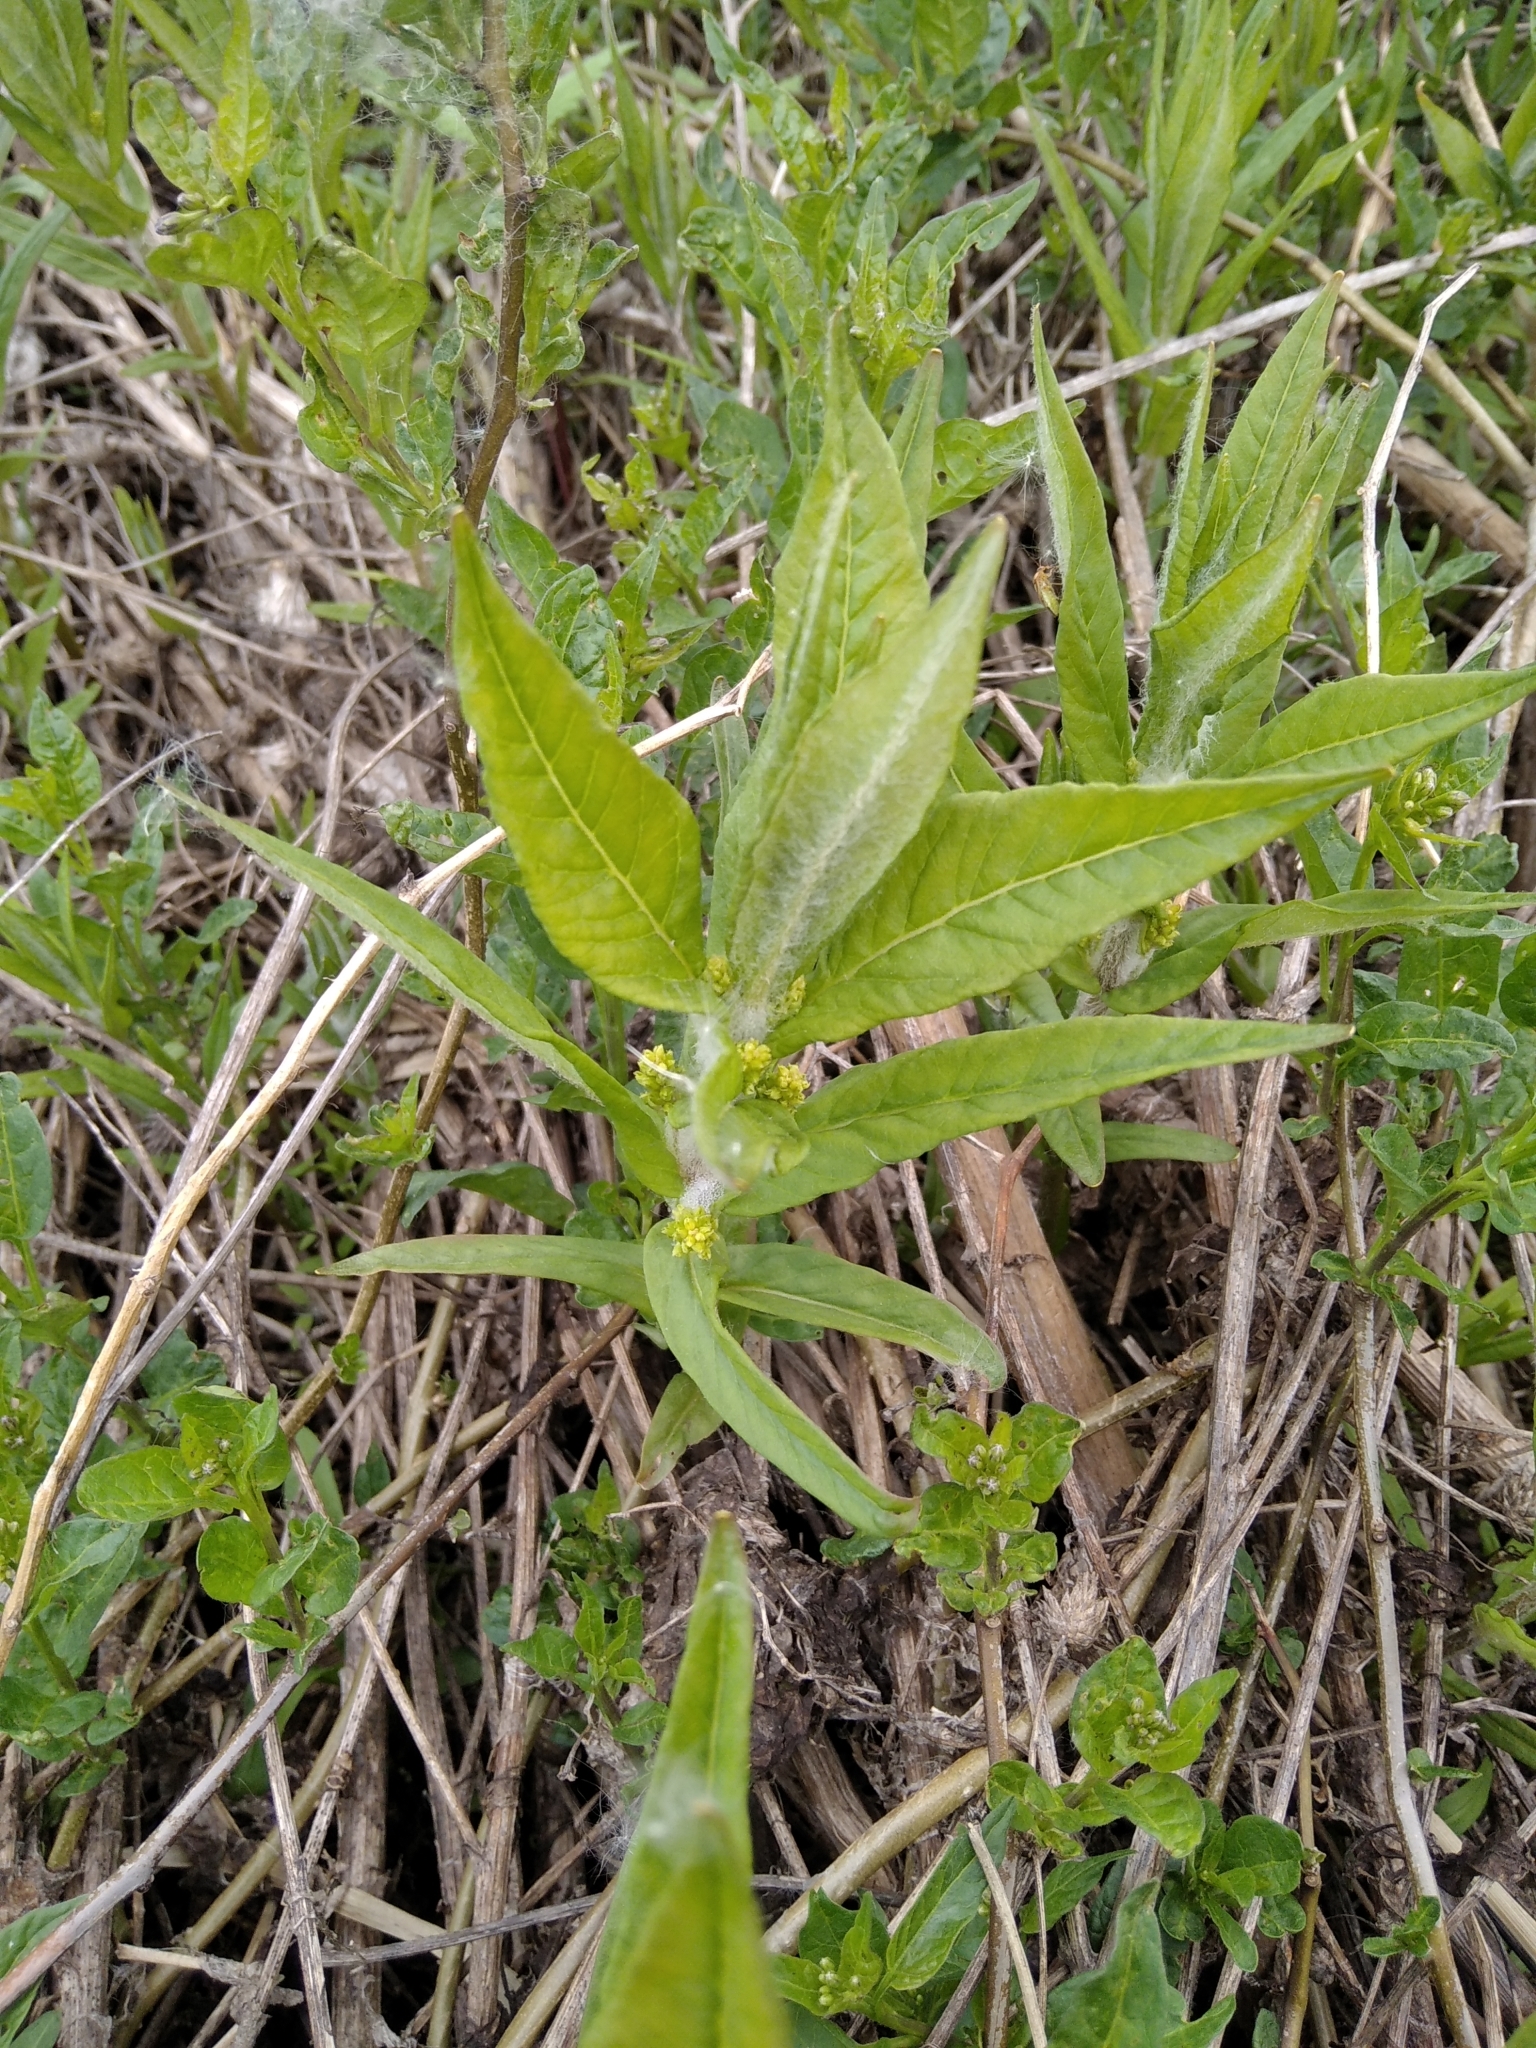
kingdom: Plantae
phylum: Tracheophyta
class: Magnoliopsida
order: Ericales
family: Primulaceae
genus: Lysimachia
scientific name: Lysimachia thyrsiflora
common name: Tufted loosestrife
